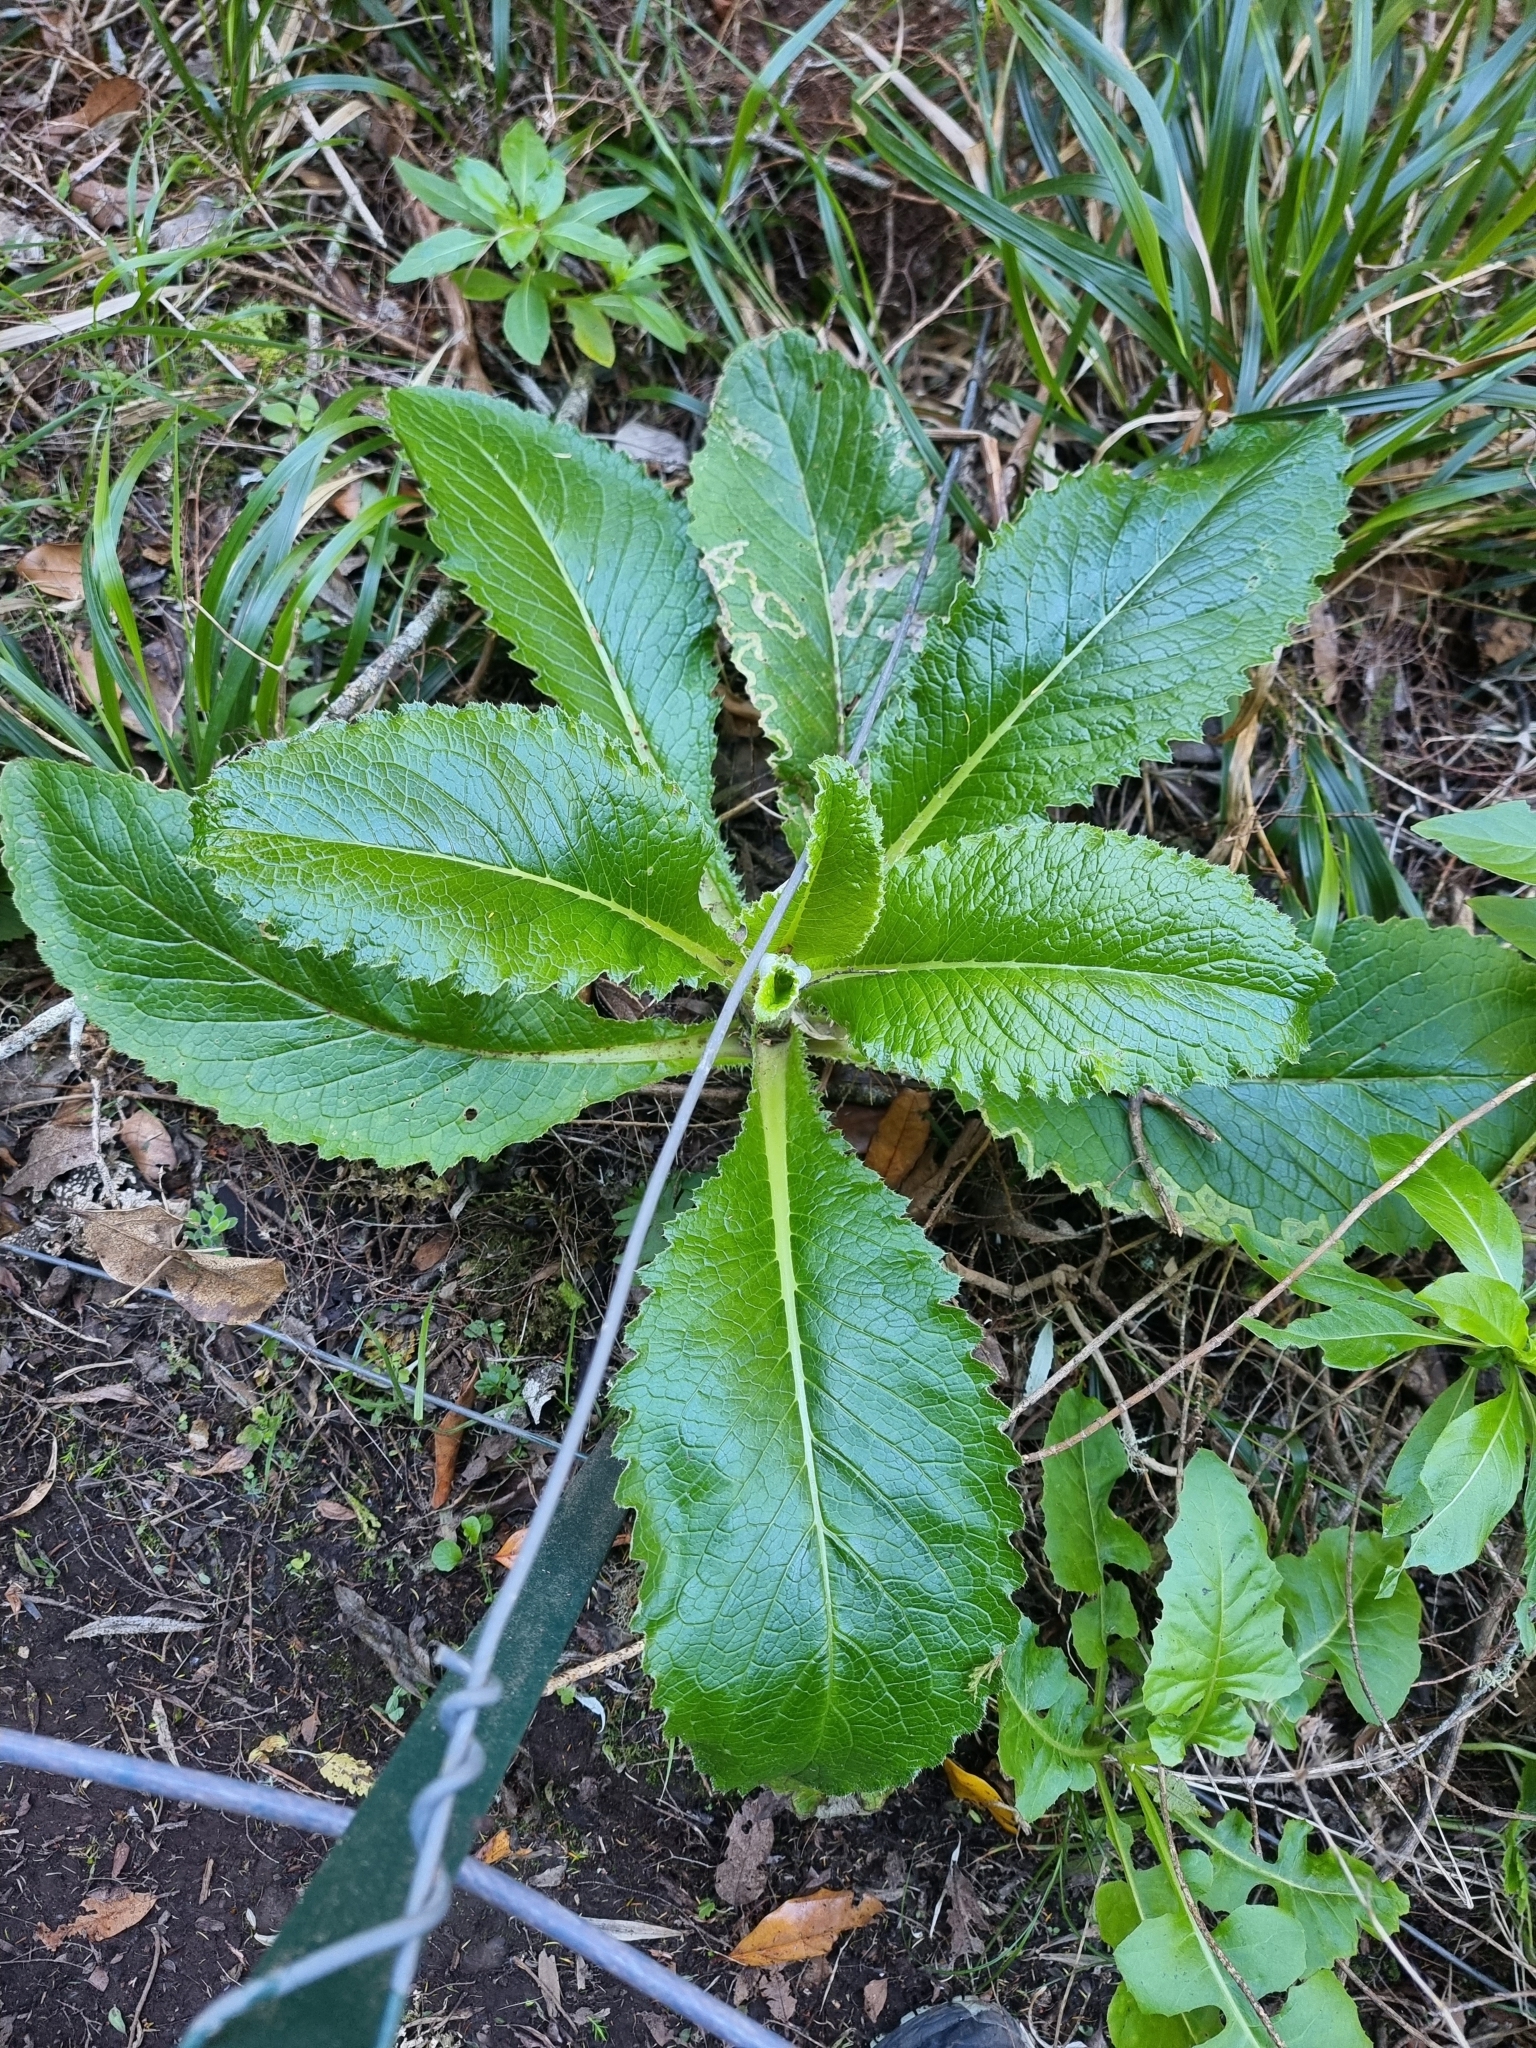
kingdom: Plantae
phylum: Tracheophyta
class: Magnoliopsida
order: Asterales
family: Asteraceae
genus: Cirsium
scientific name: Cirsium latifolium
